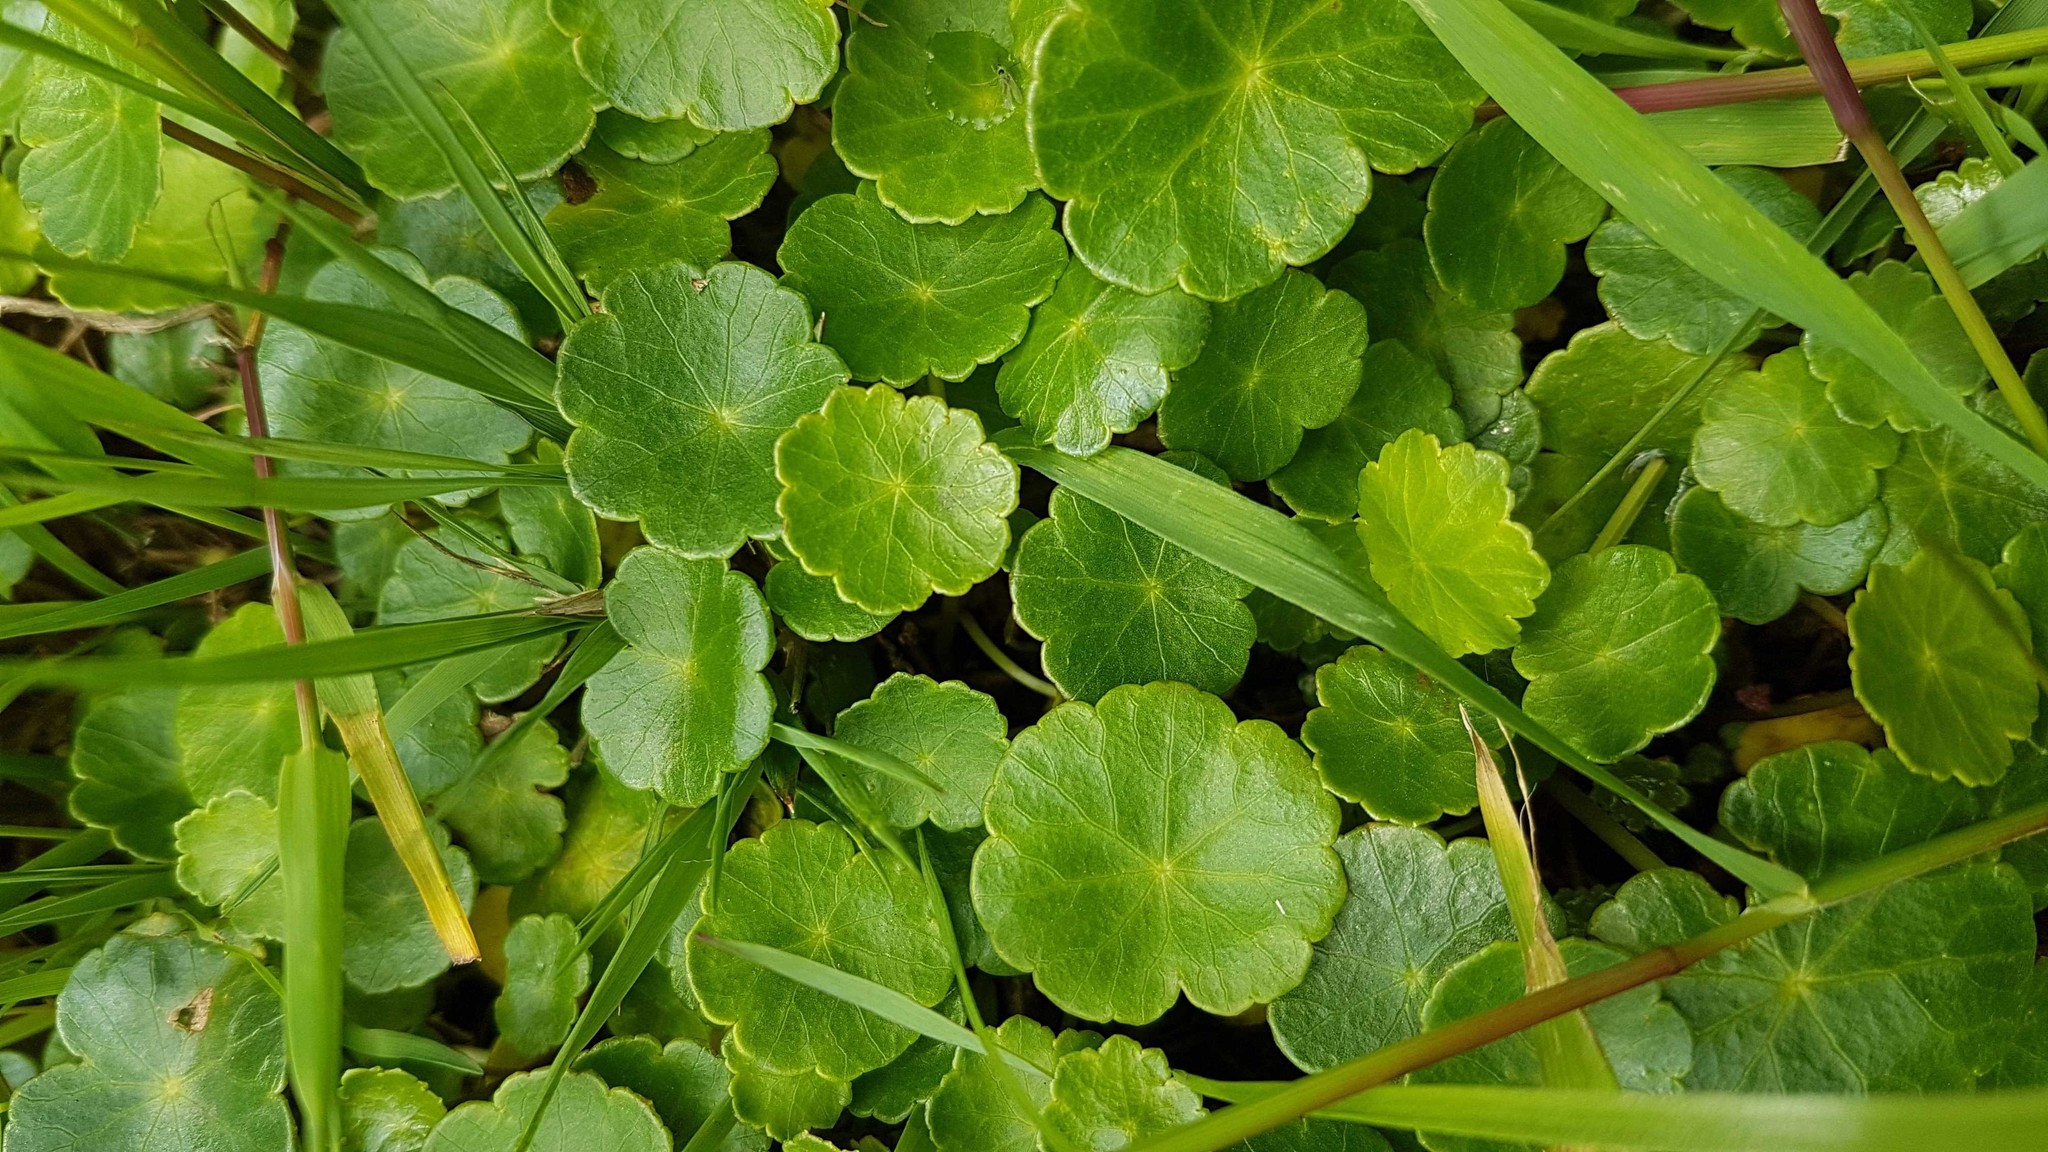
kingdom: Plantae
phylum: Tracheophyta
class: Magnoliopsida
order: Apiales
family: Araliaceae
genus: Hydrocotyle
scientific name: Hydrocotyle vulgaris
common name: Marsh pennywort
